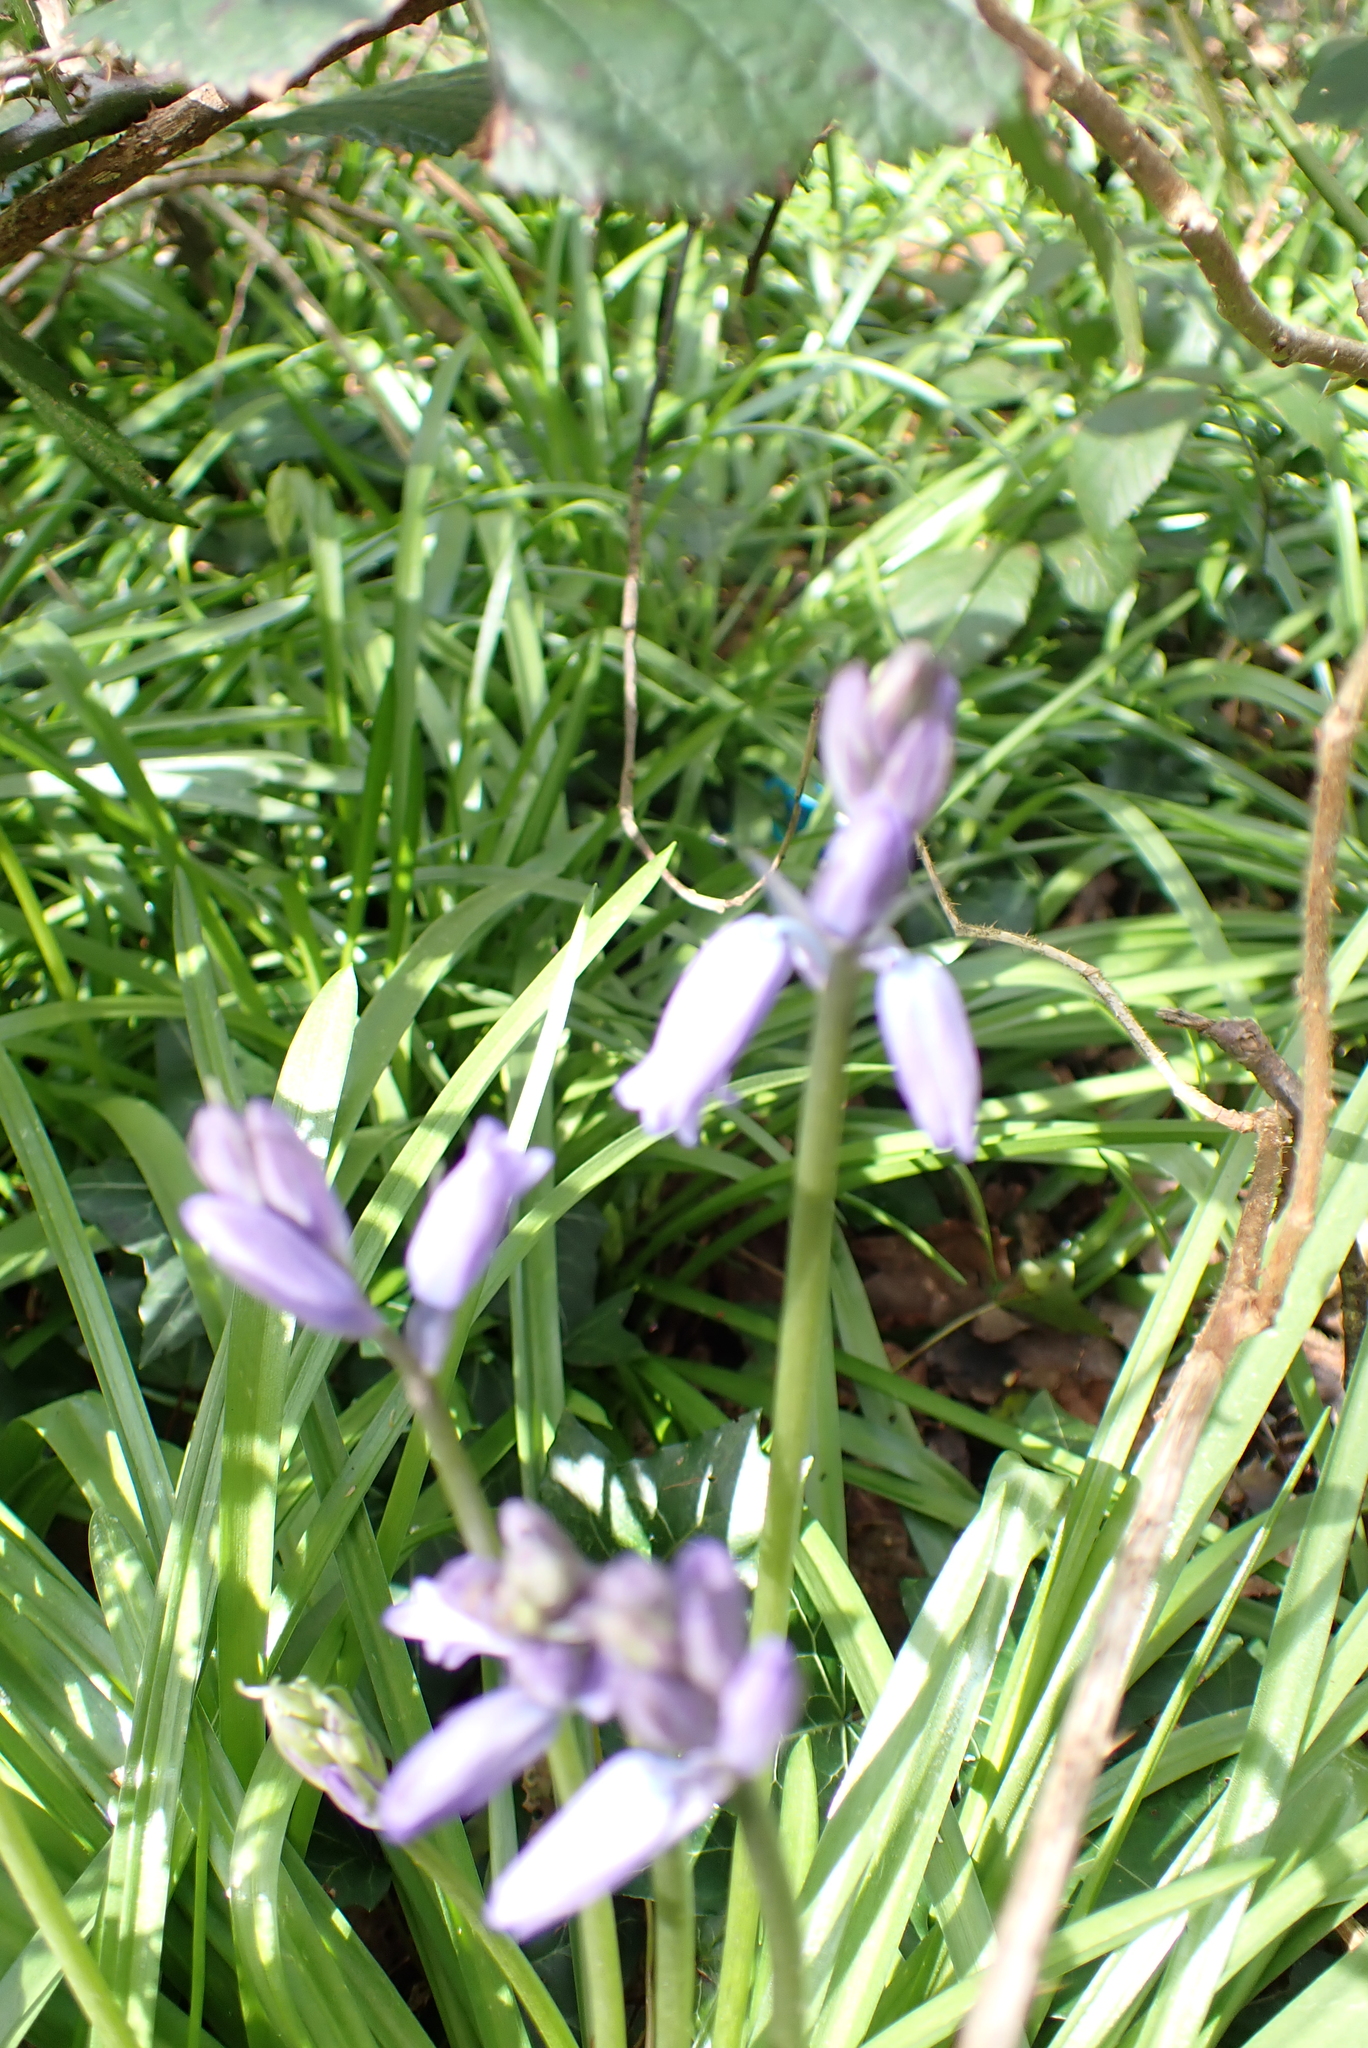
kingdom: Plantae
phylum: Tracheophyta
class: Liliopsida
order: Asparagales
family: Asparagaceae
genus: Hyacinthoides
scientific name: Hyacinthoides non-scripta
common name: Bluebell
